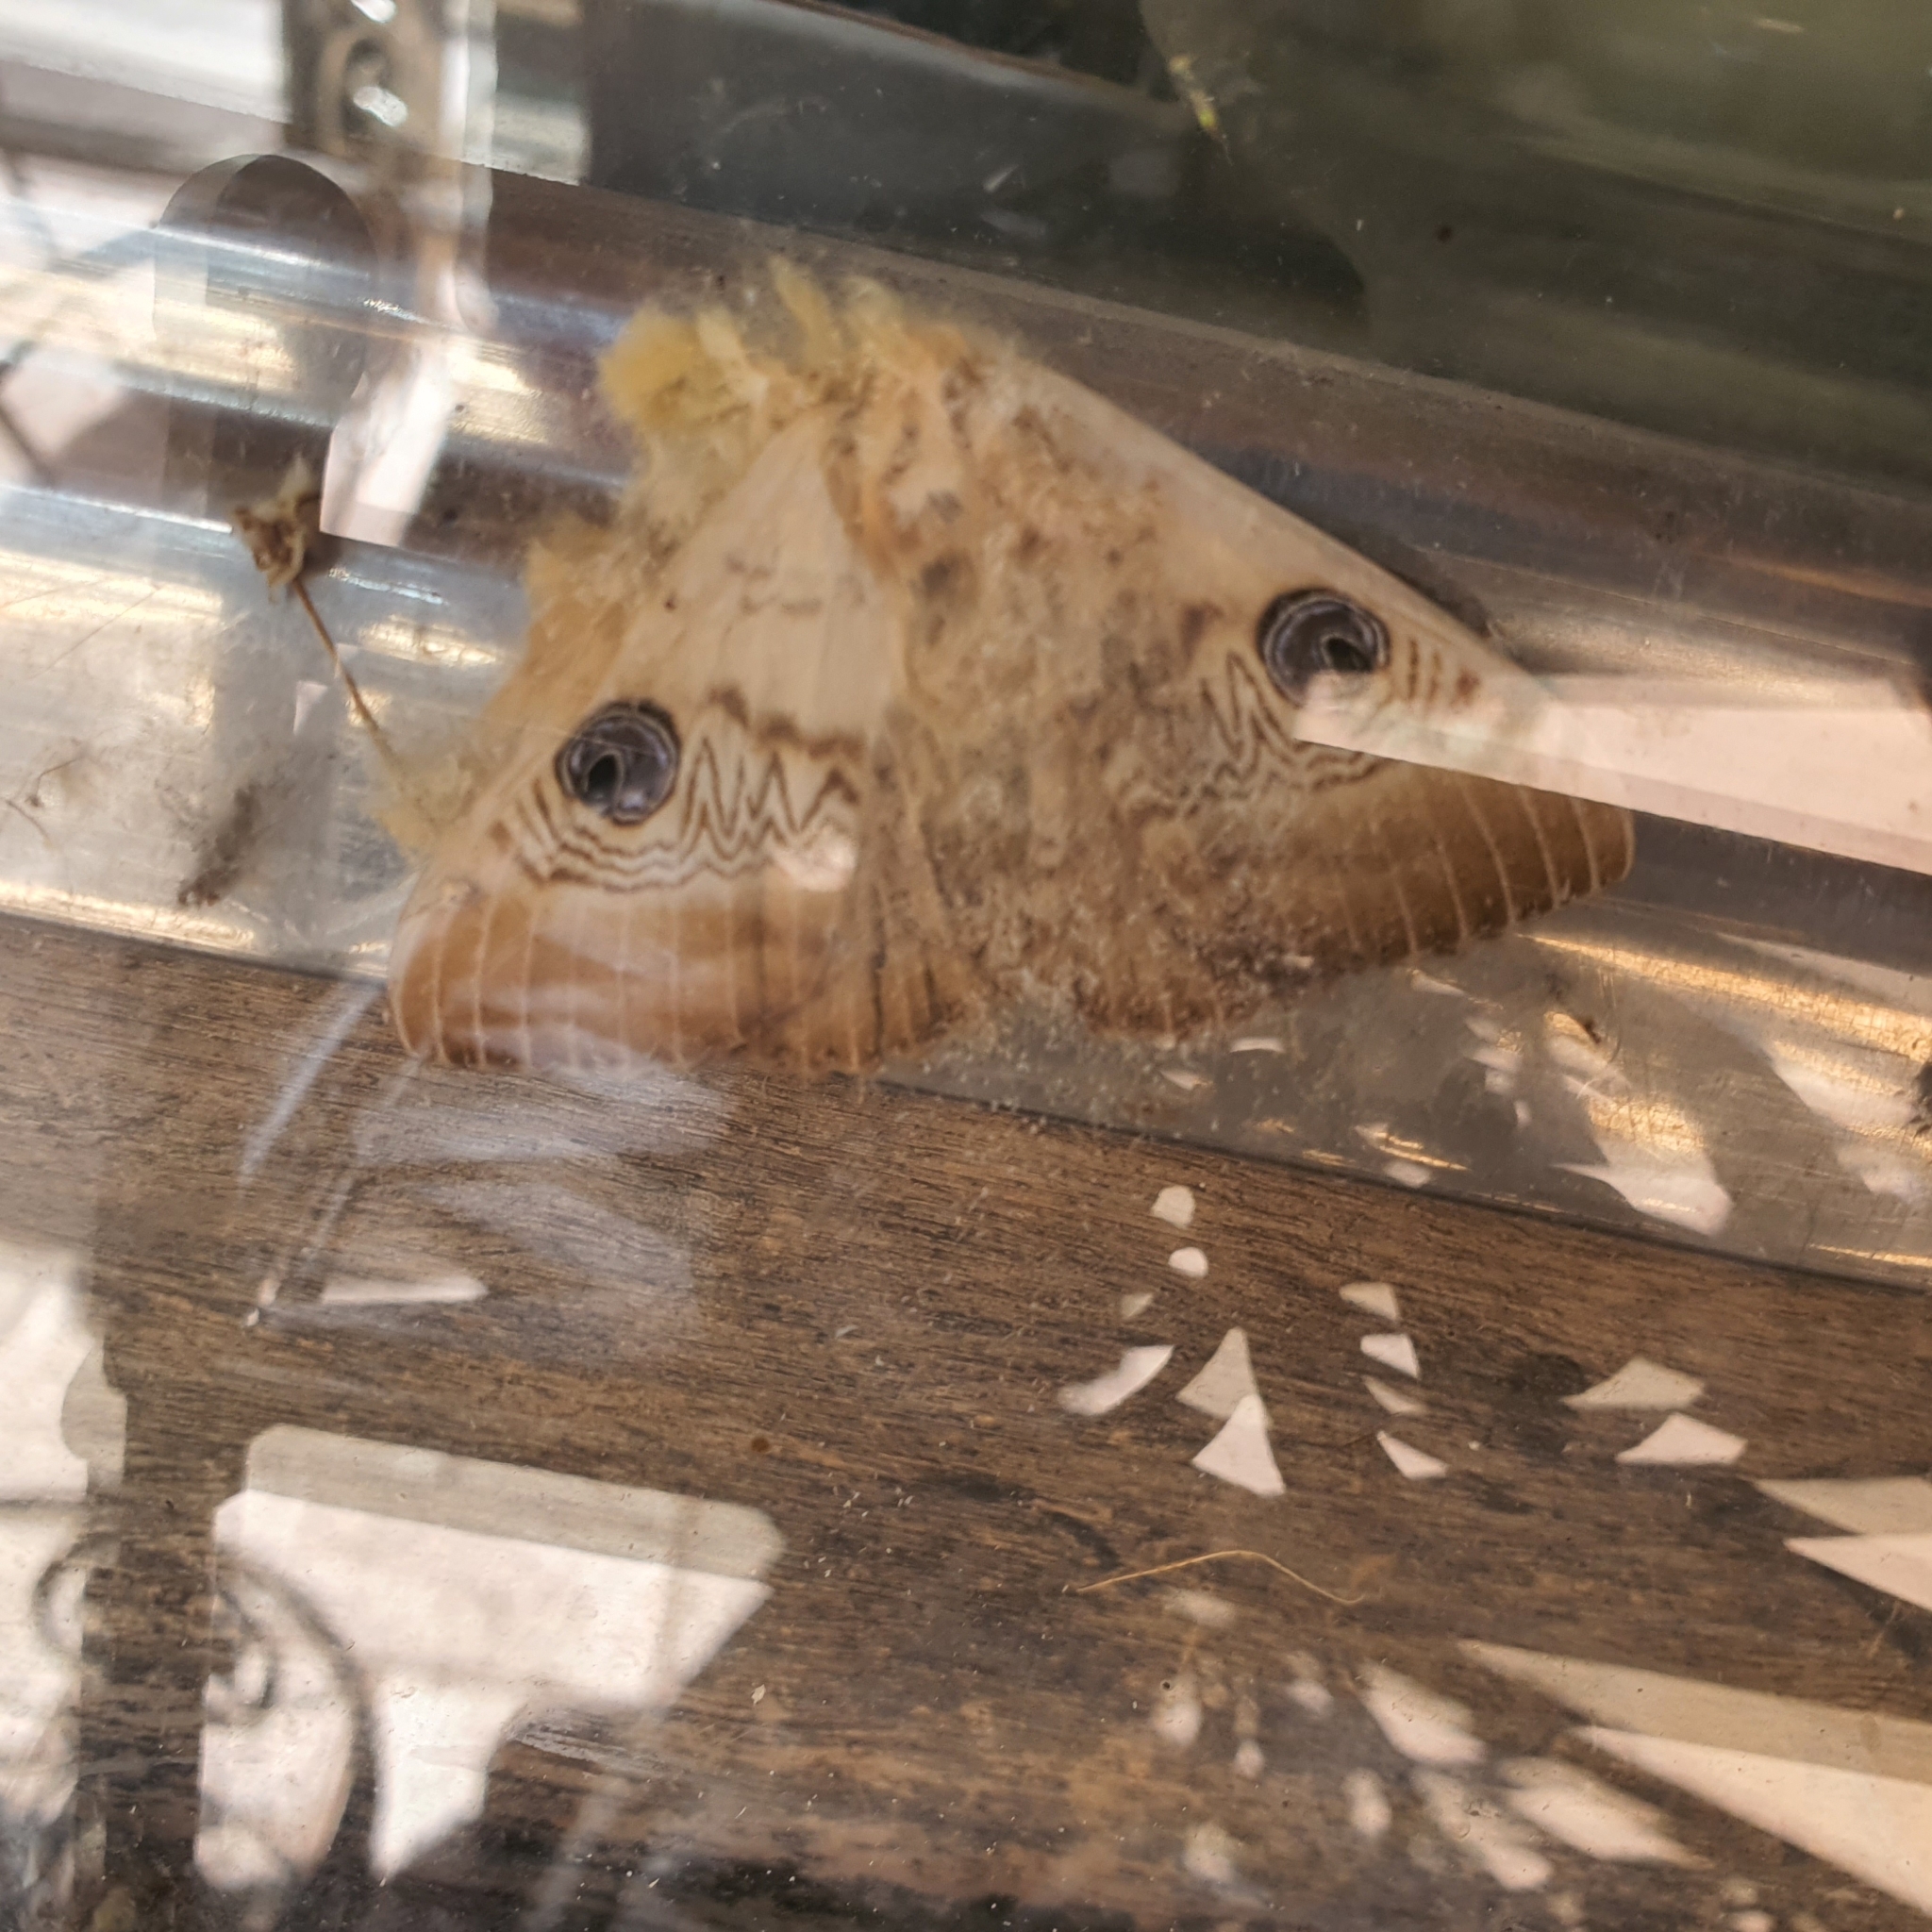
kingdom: Animalia
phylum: Arthropoda
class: Insecta
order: Lepidoptera
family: Erebidae
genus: Dasypodia
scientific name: Dasypodia selenophora
